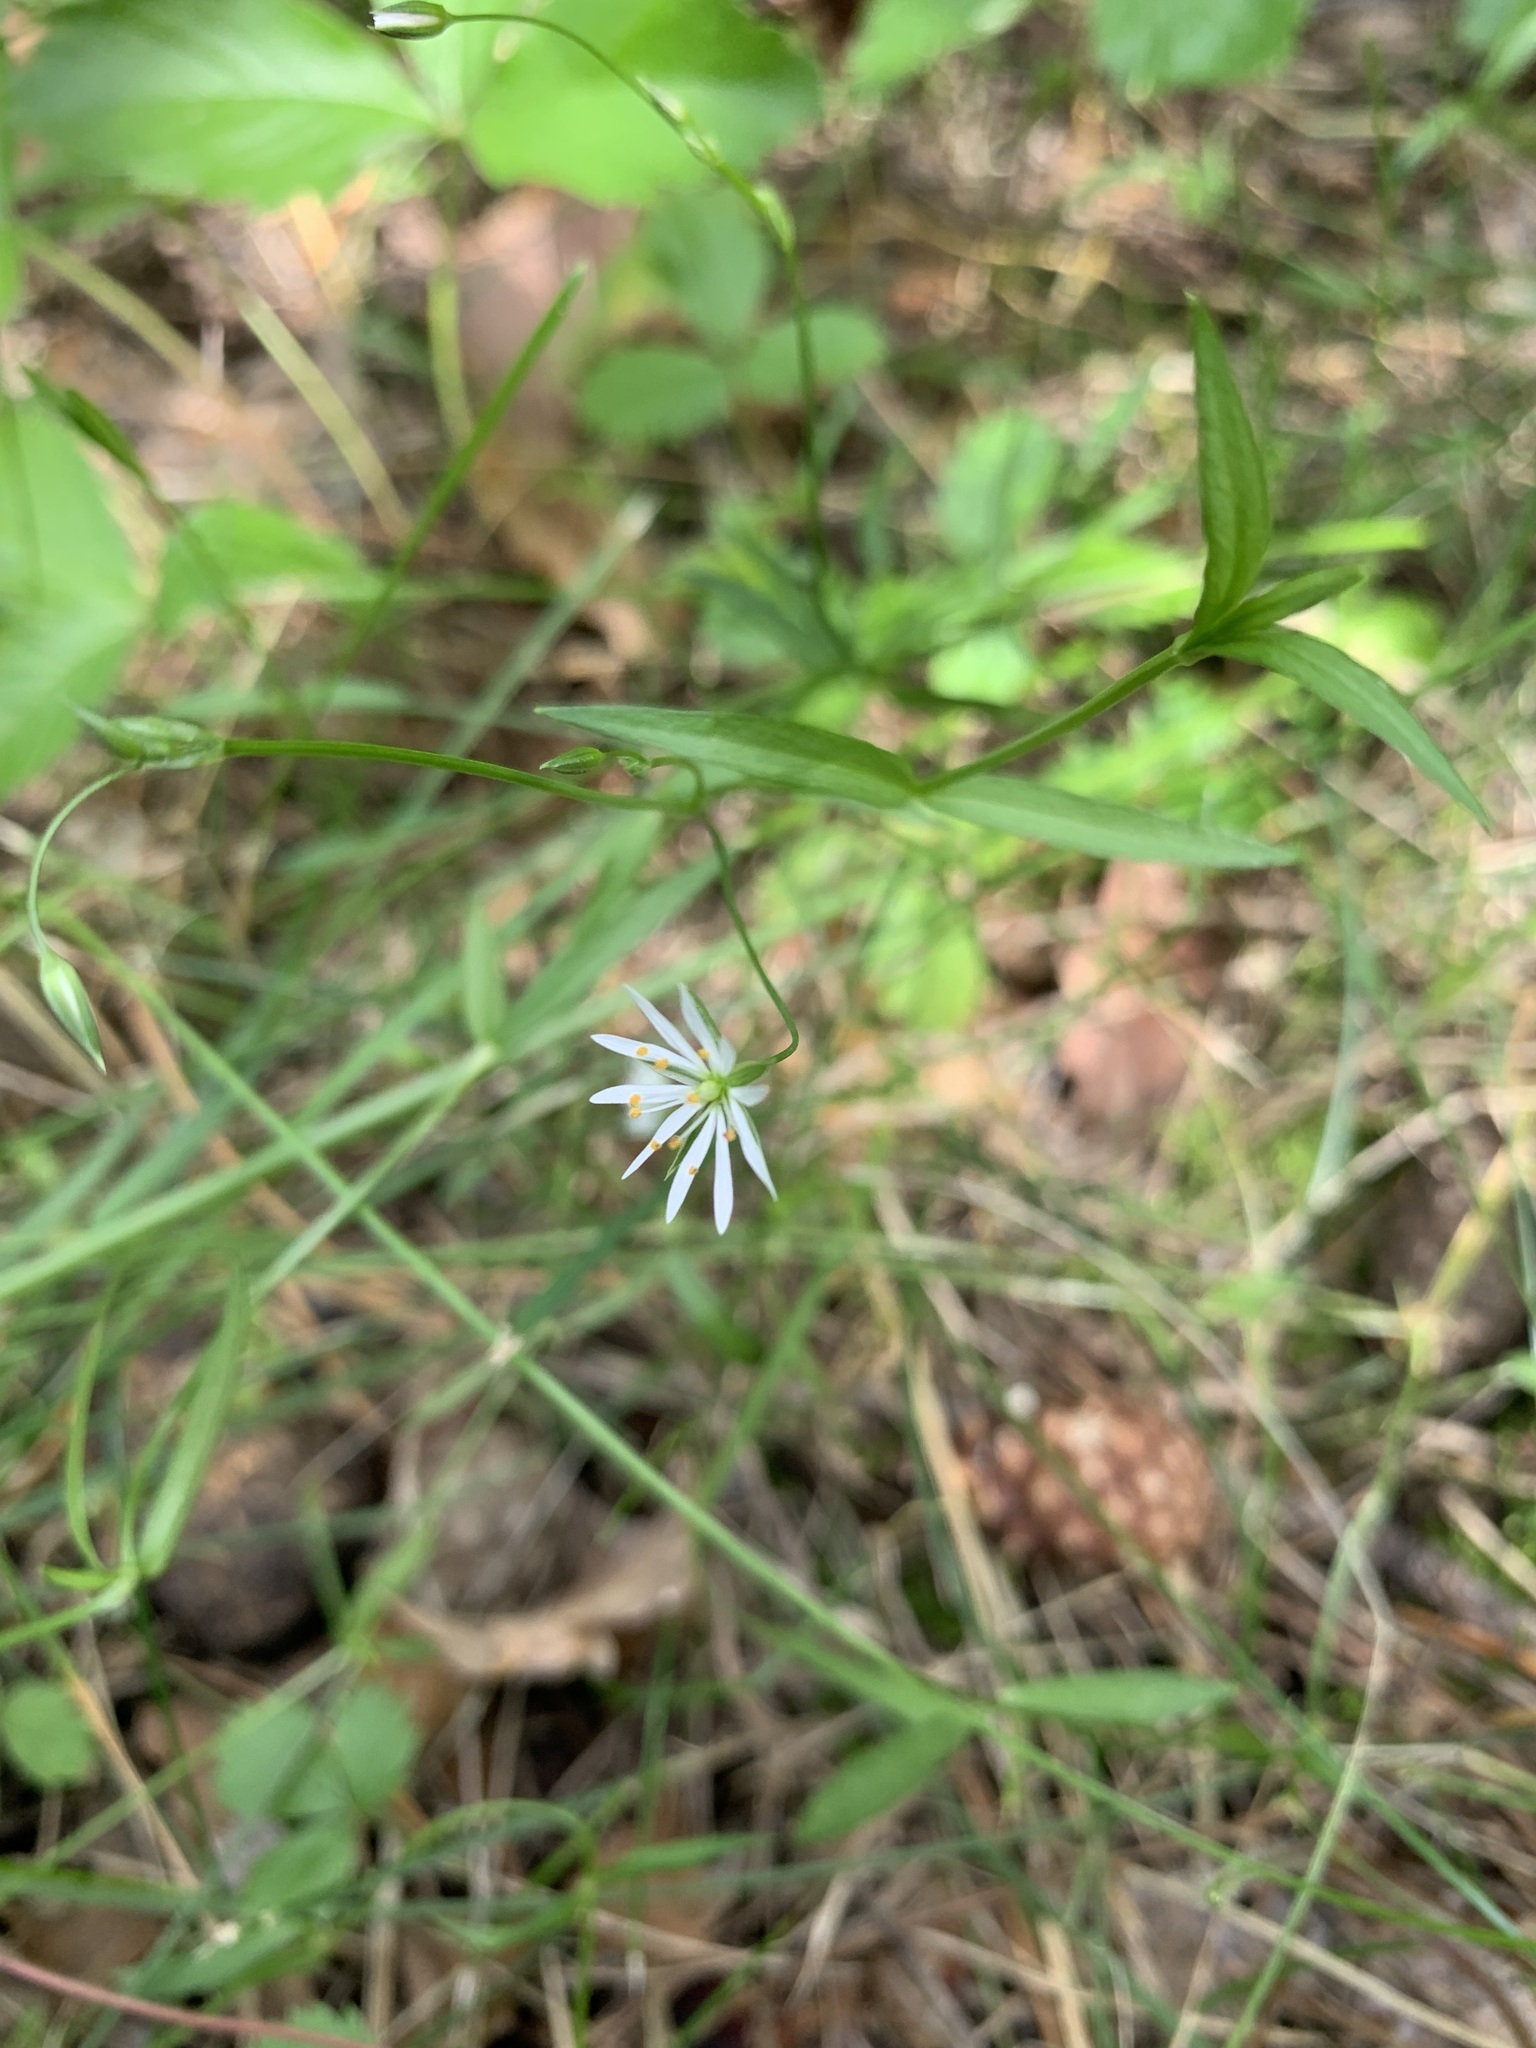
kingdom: Plantae
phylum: Tracheophyta
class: Magnoliopsida
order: Caryophyllales
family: Caryophyllaceae
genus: Stellaria
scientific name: Stellaria graminea
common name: Grass-like starwort
